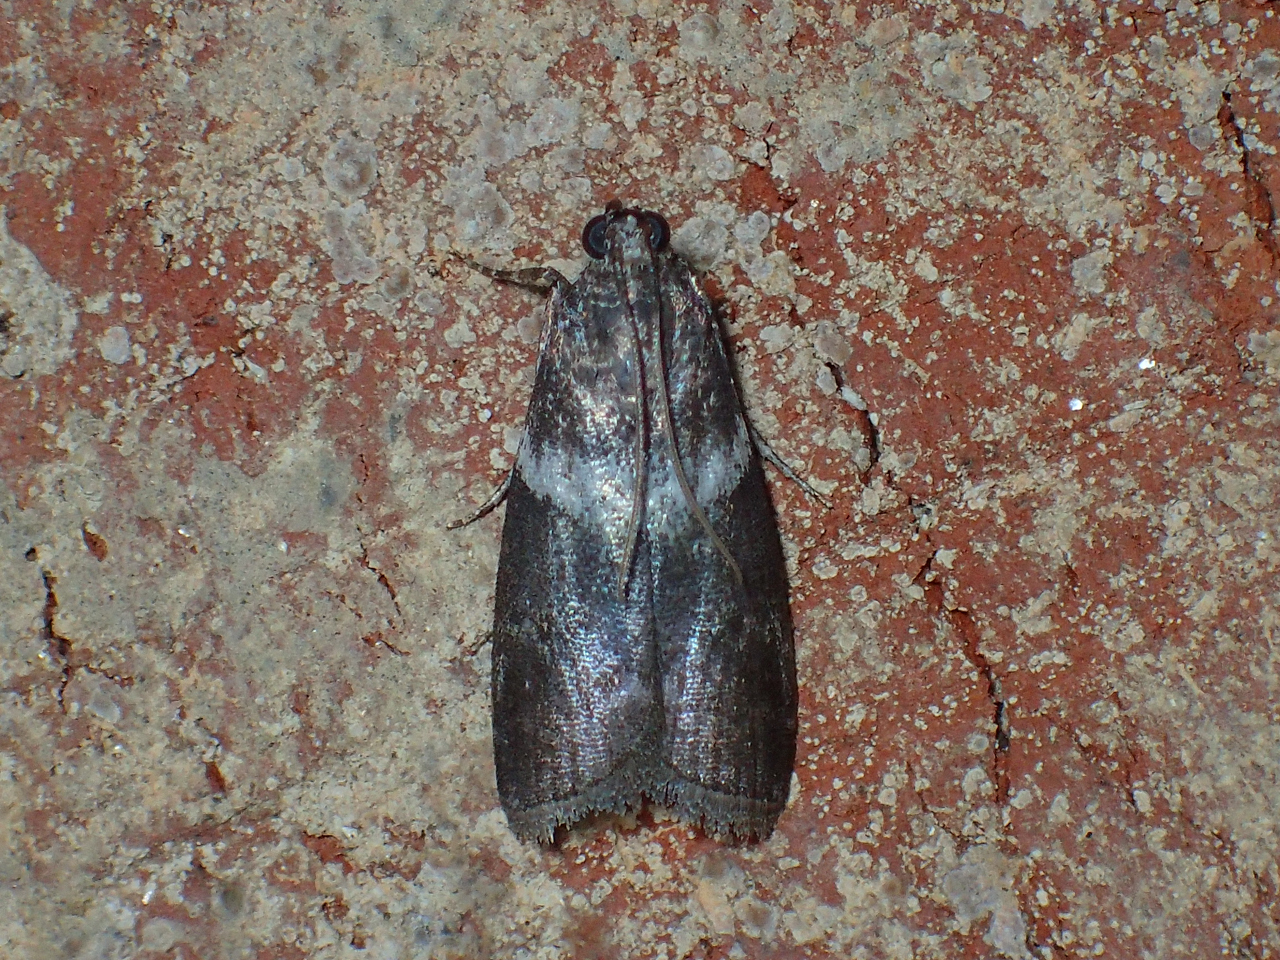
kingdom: Animalia
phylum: Arthropoda
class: Insecta
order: Lepidoptera
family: Pyralidae
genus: Salebriaria
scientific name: Salebriaria rufimaculatella
